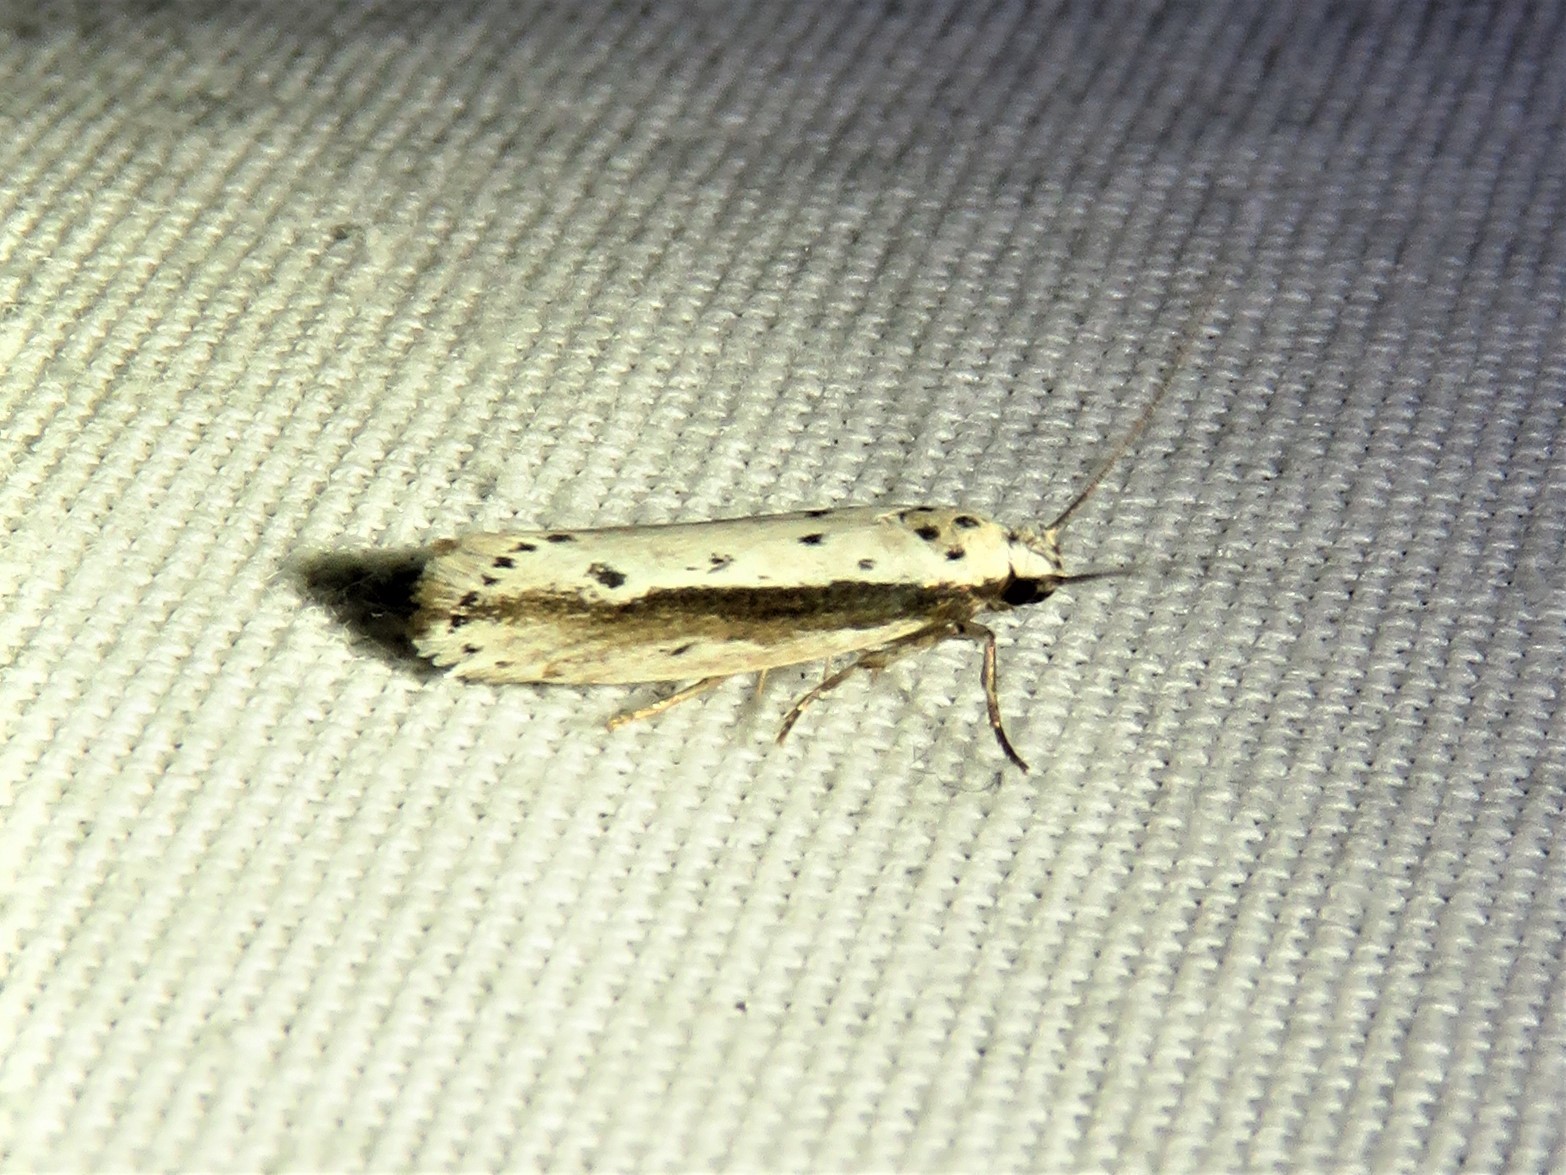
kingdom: Animalia
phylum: Arthropoda
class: Insecta
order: Lepidoptera
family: Ethmiidae
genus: Ethmia
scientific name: Ethmia mirusella
